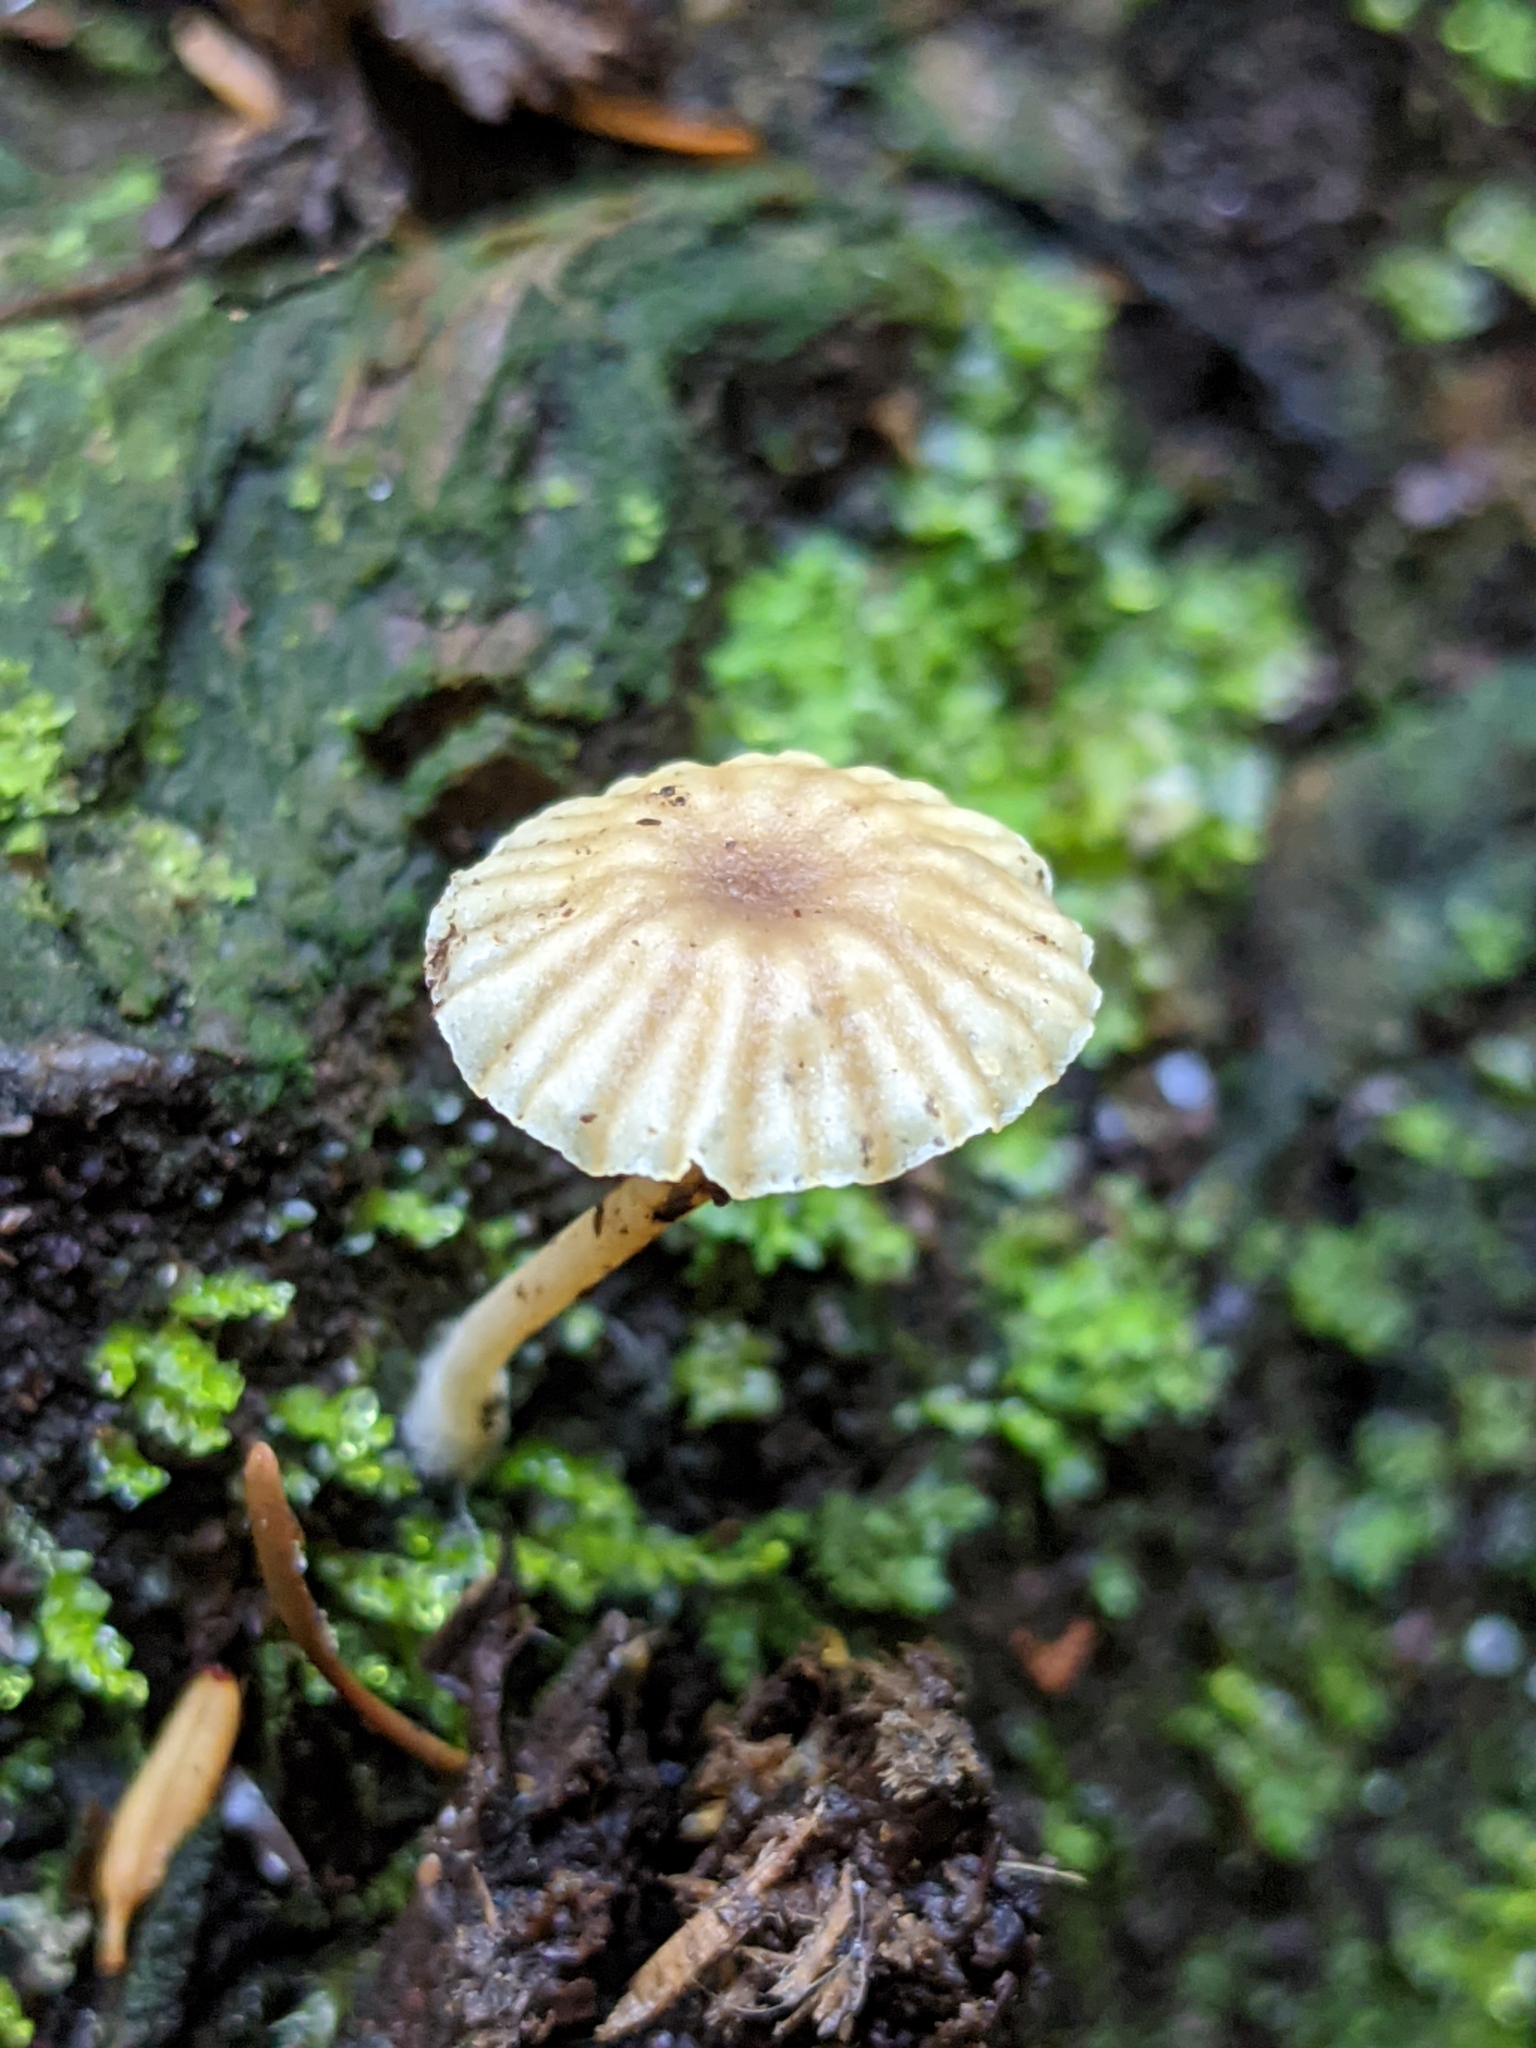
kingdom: Fungi
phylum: Basidiomycota
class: Agaricomycetes
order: Agaricales
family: Hygrophoraceae
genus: Lichenomphalia
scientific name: Lichenomphalia
